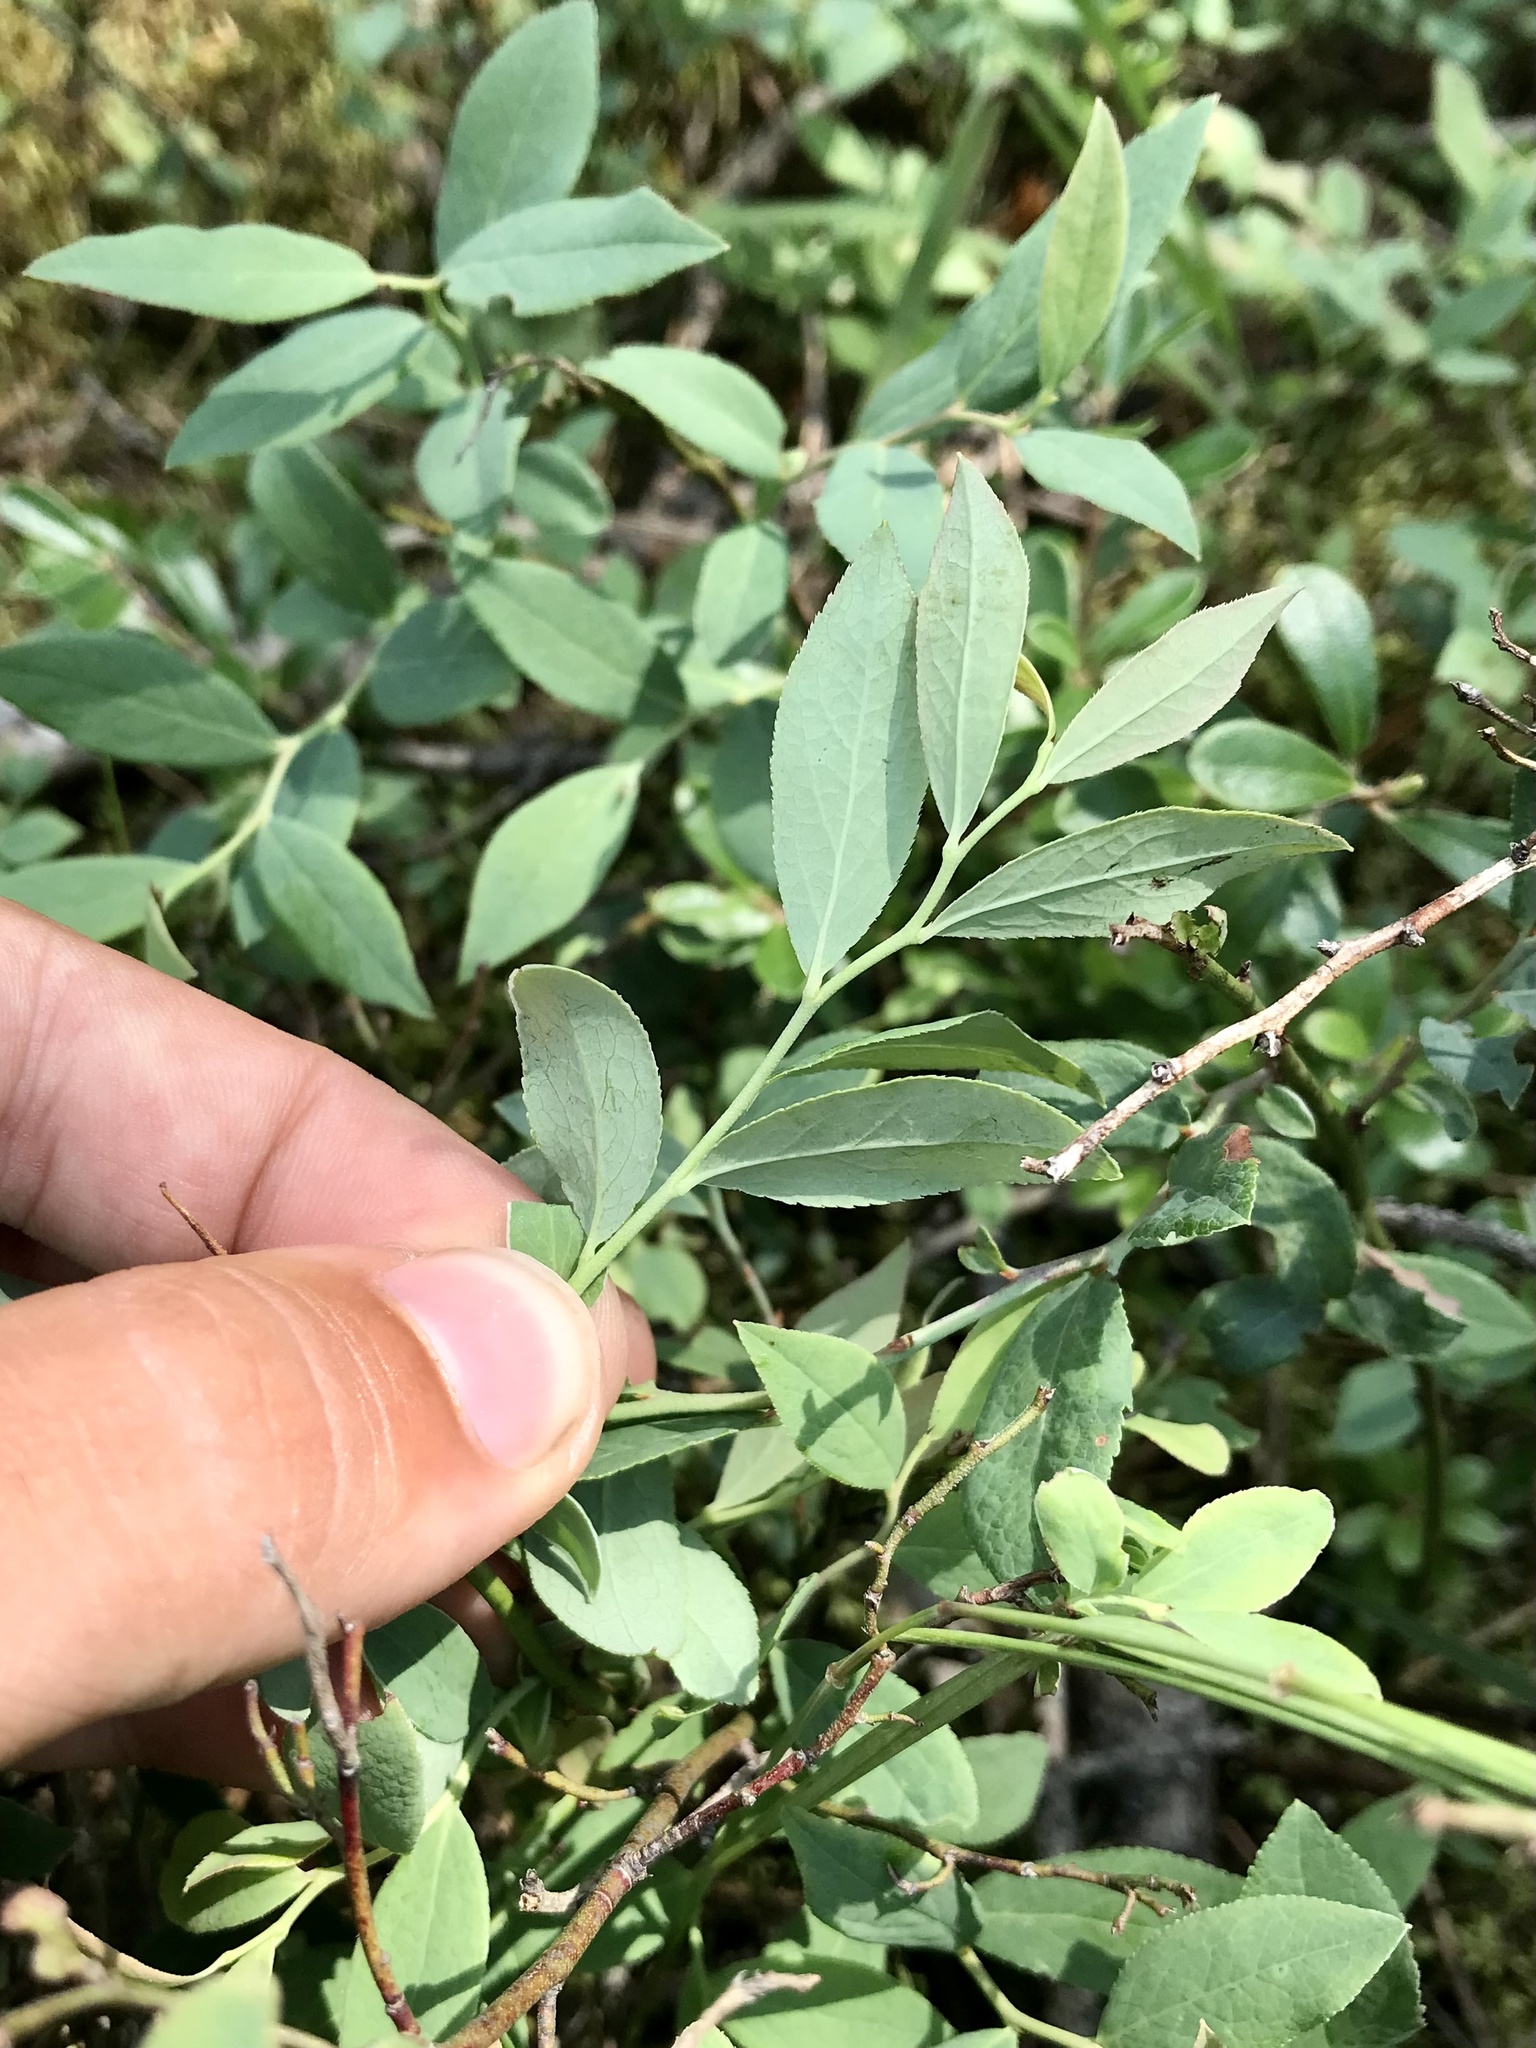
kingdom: Plantae
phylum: Tracheophyta
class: Magnoliopsida
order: Ericales
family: Ericaceae
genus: Vaccinium
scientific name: Vaccinium angustifolium
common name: Early lowbush blueberry
